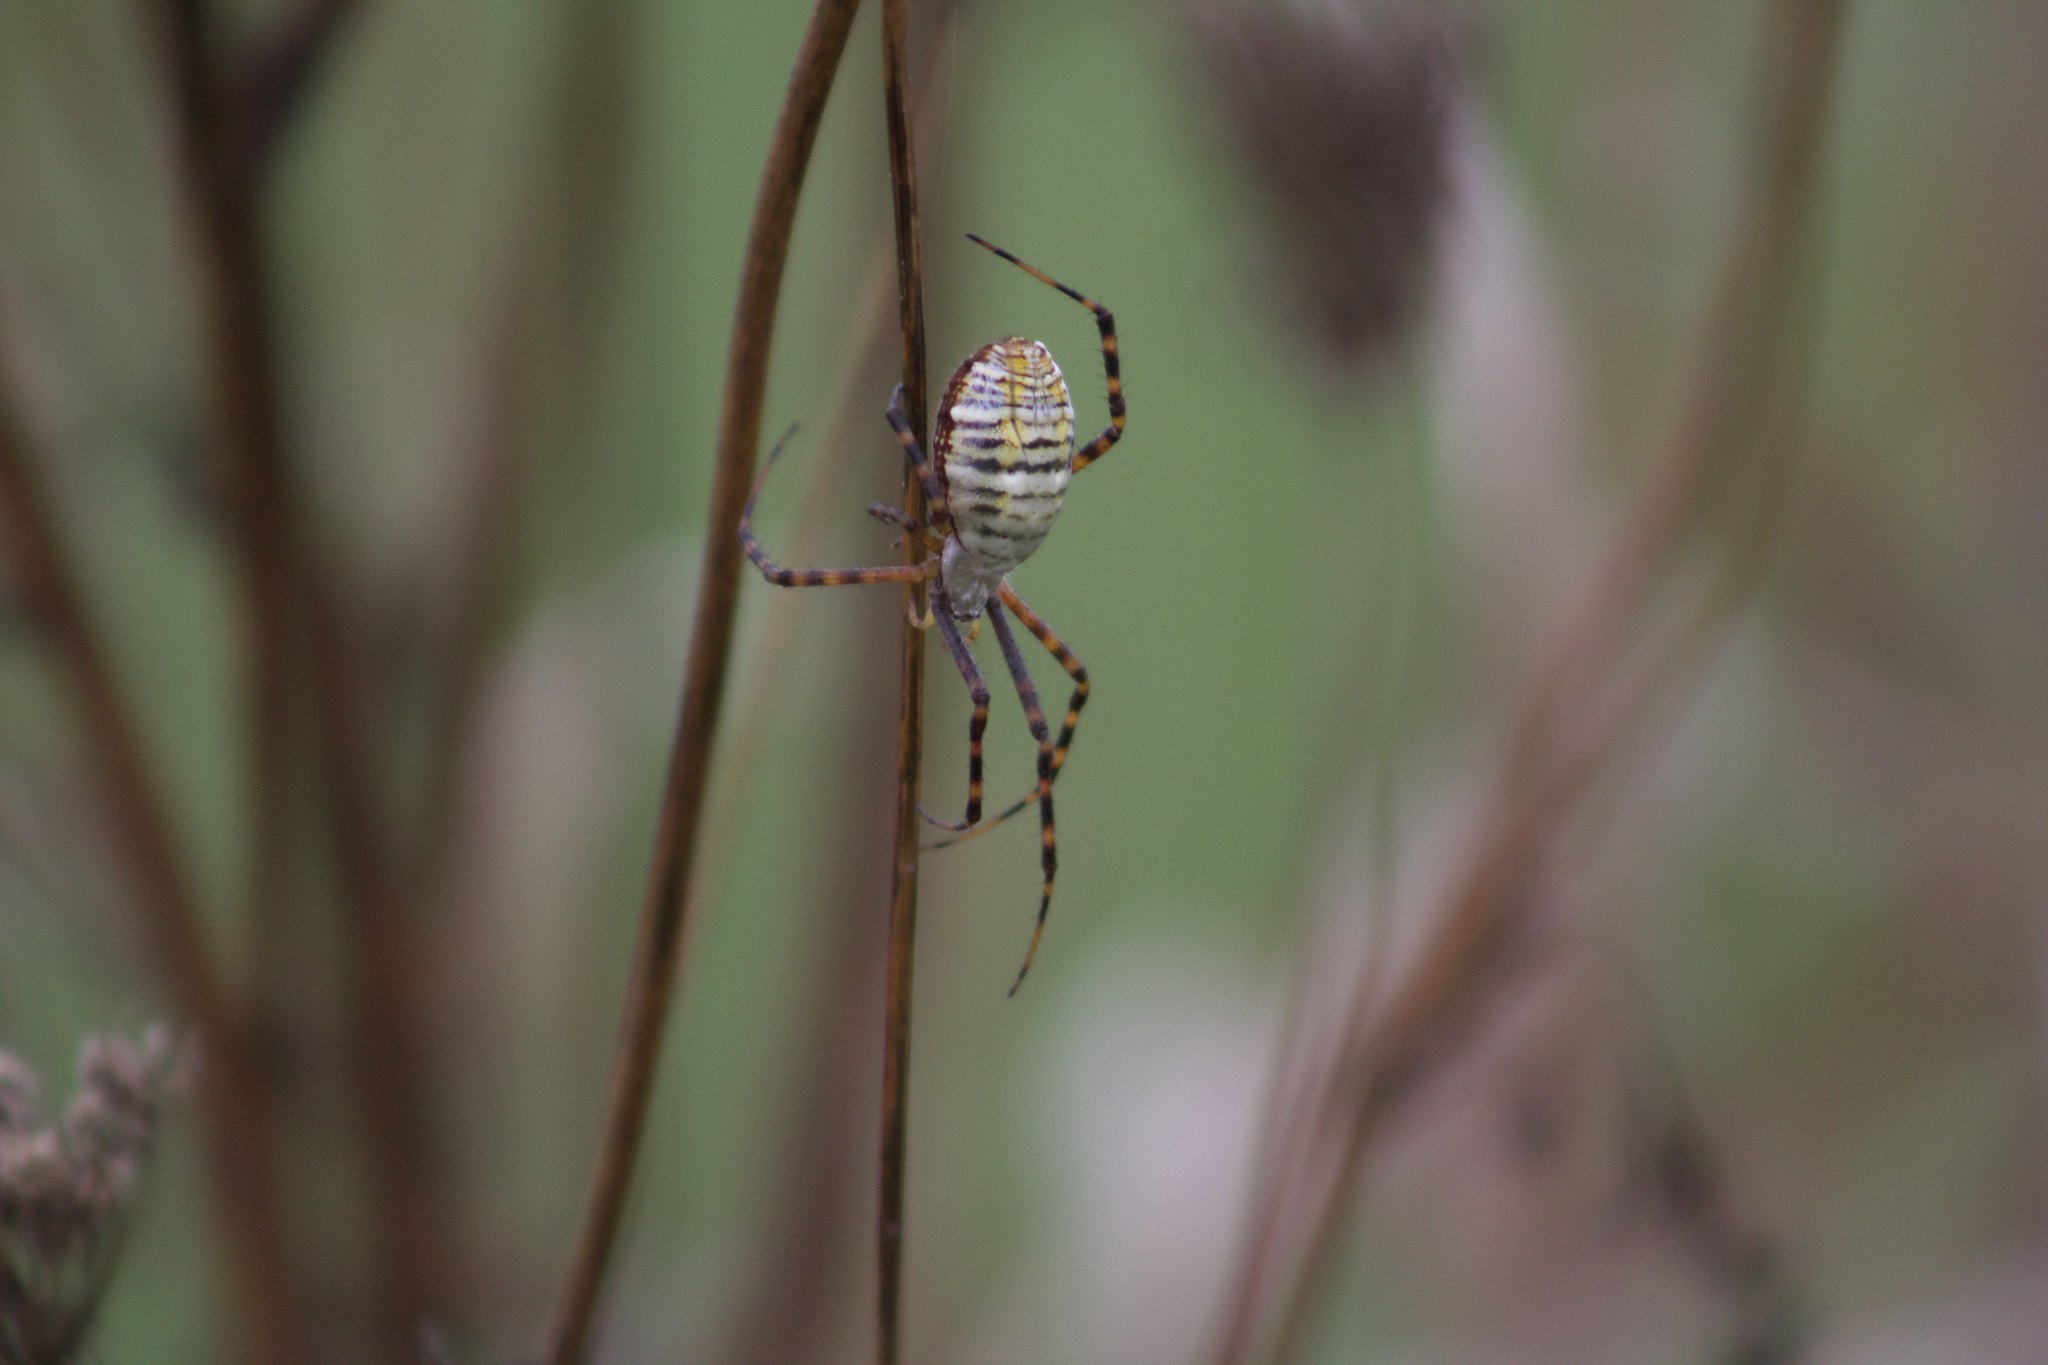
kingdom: Animalia
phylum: Arthropoda
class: Arachnida
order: Araneae
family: Araneidae
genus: Argiope
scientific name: Argiope trifasciata
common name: Banded garden spider
